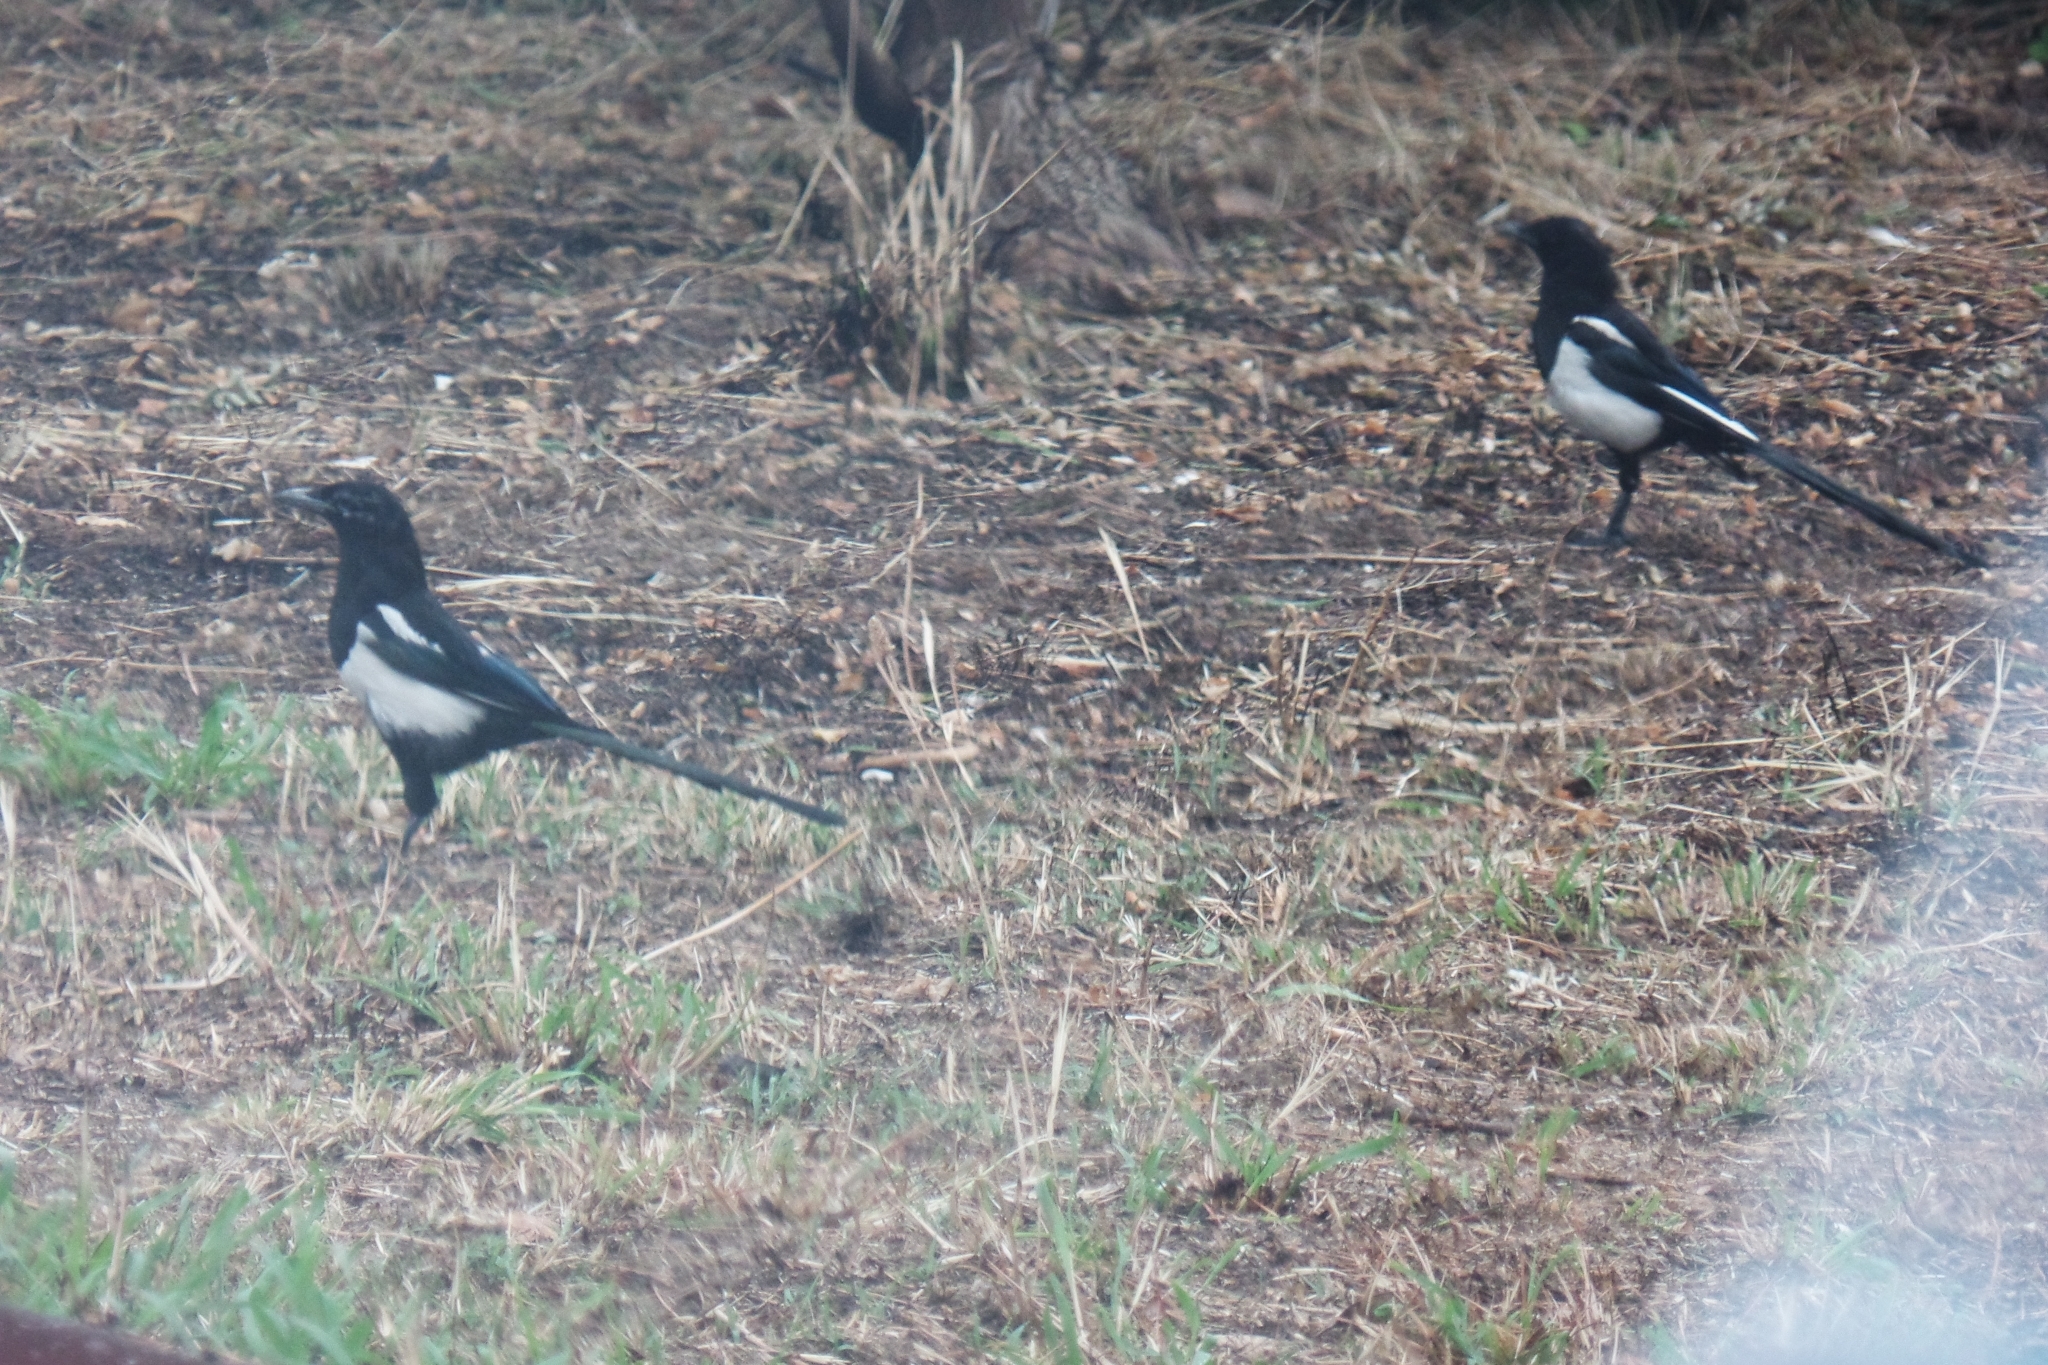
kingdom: Animalia
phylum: Chordata
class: Aves
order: Passeriformes
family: Corvidae
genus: Pica
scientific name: Pica pica
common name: Eurasian magpie
